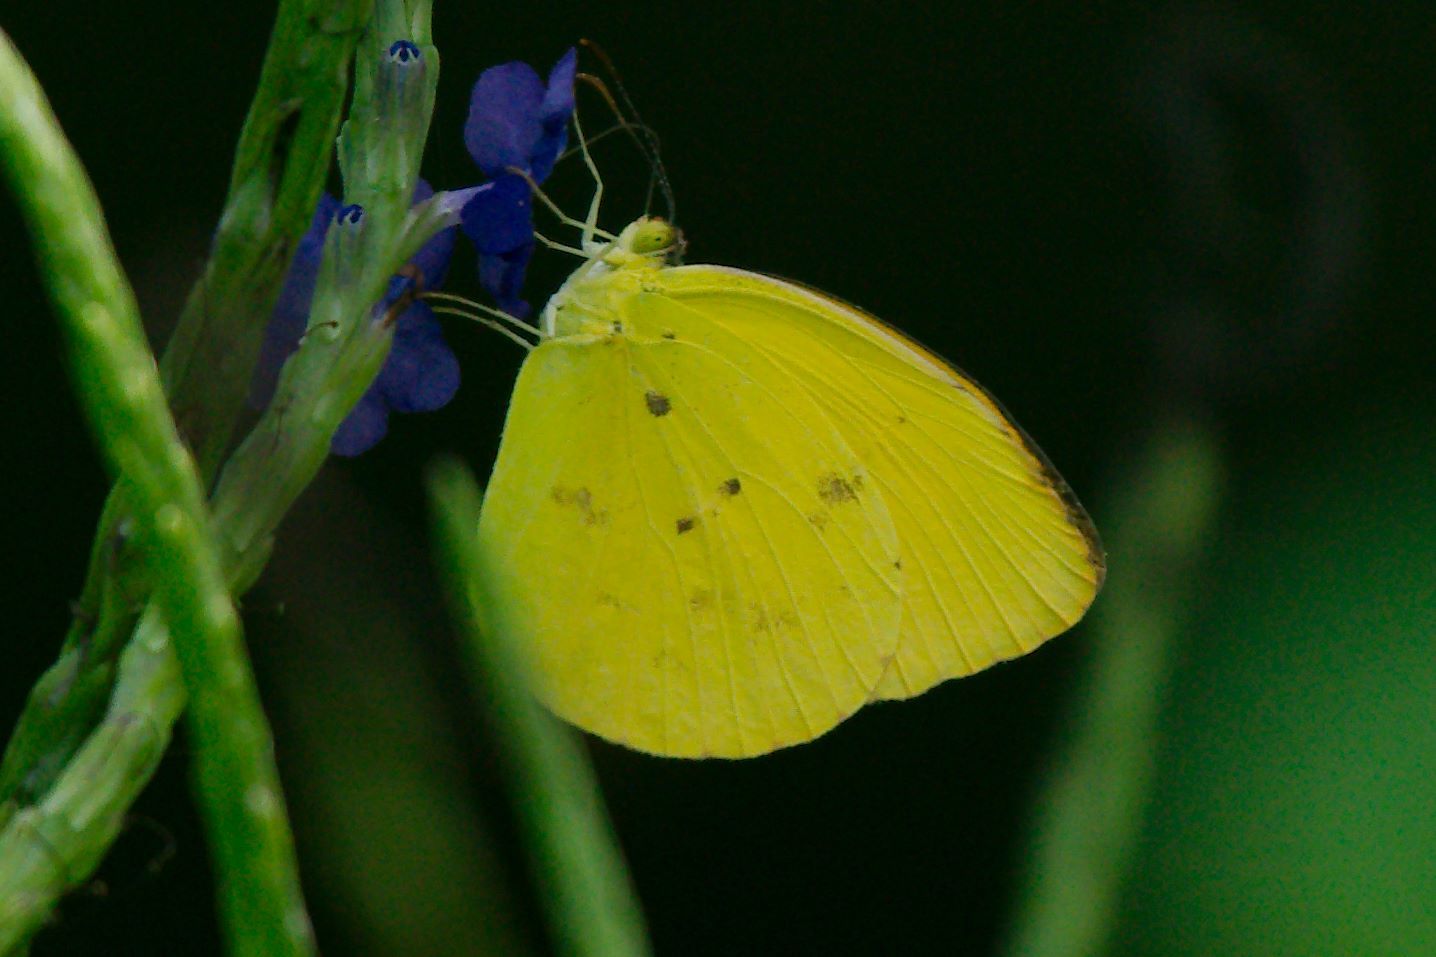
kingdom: Animalia
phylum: Arthropoda
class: Insecta
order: Lepidoptera
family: Pieridae
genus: Pyrisitia
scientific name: Pyrisitia dina
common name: Dina yellow
